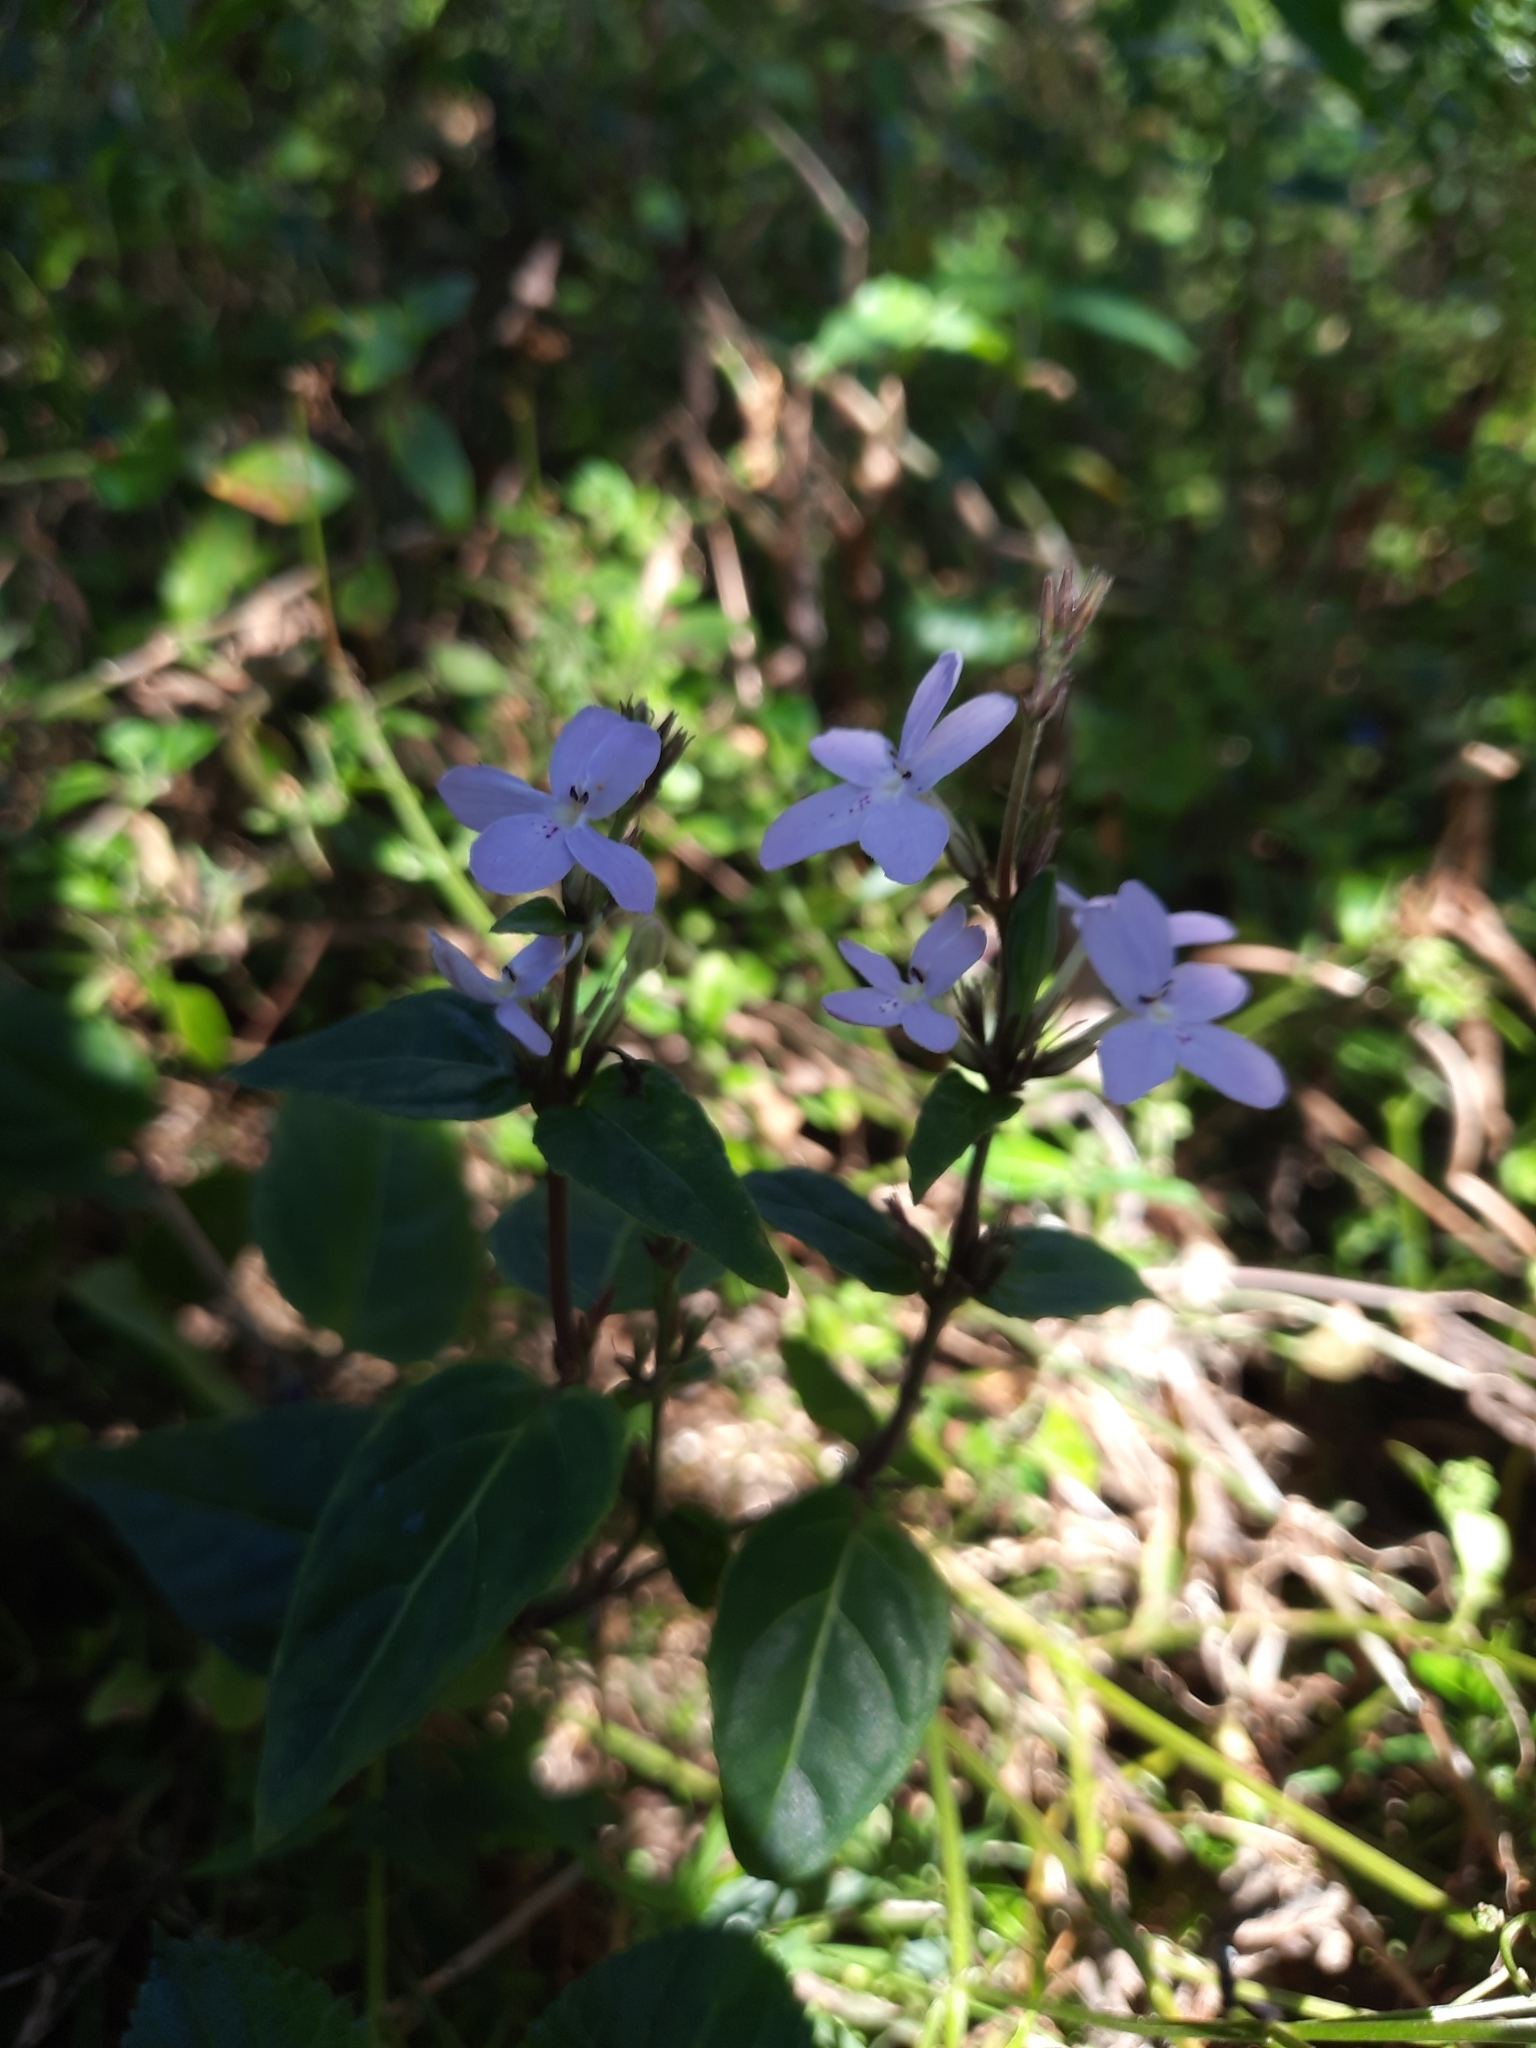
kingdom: Plantae
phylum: Tracheophyta
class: Magnoliopsida
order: Lamiales
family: Acanthaceae
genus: Pseuderanthemum
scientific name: Pseuderanthemum variabile
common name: Night and afternoon
